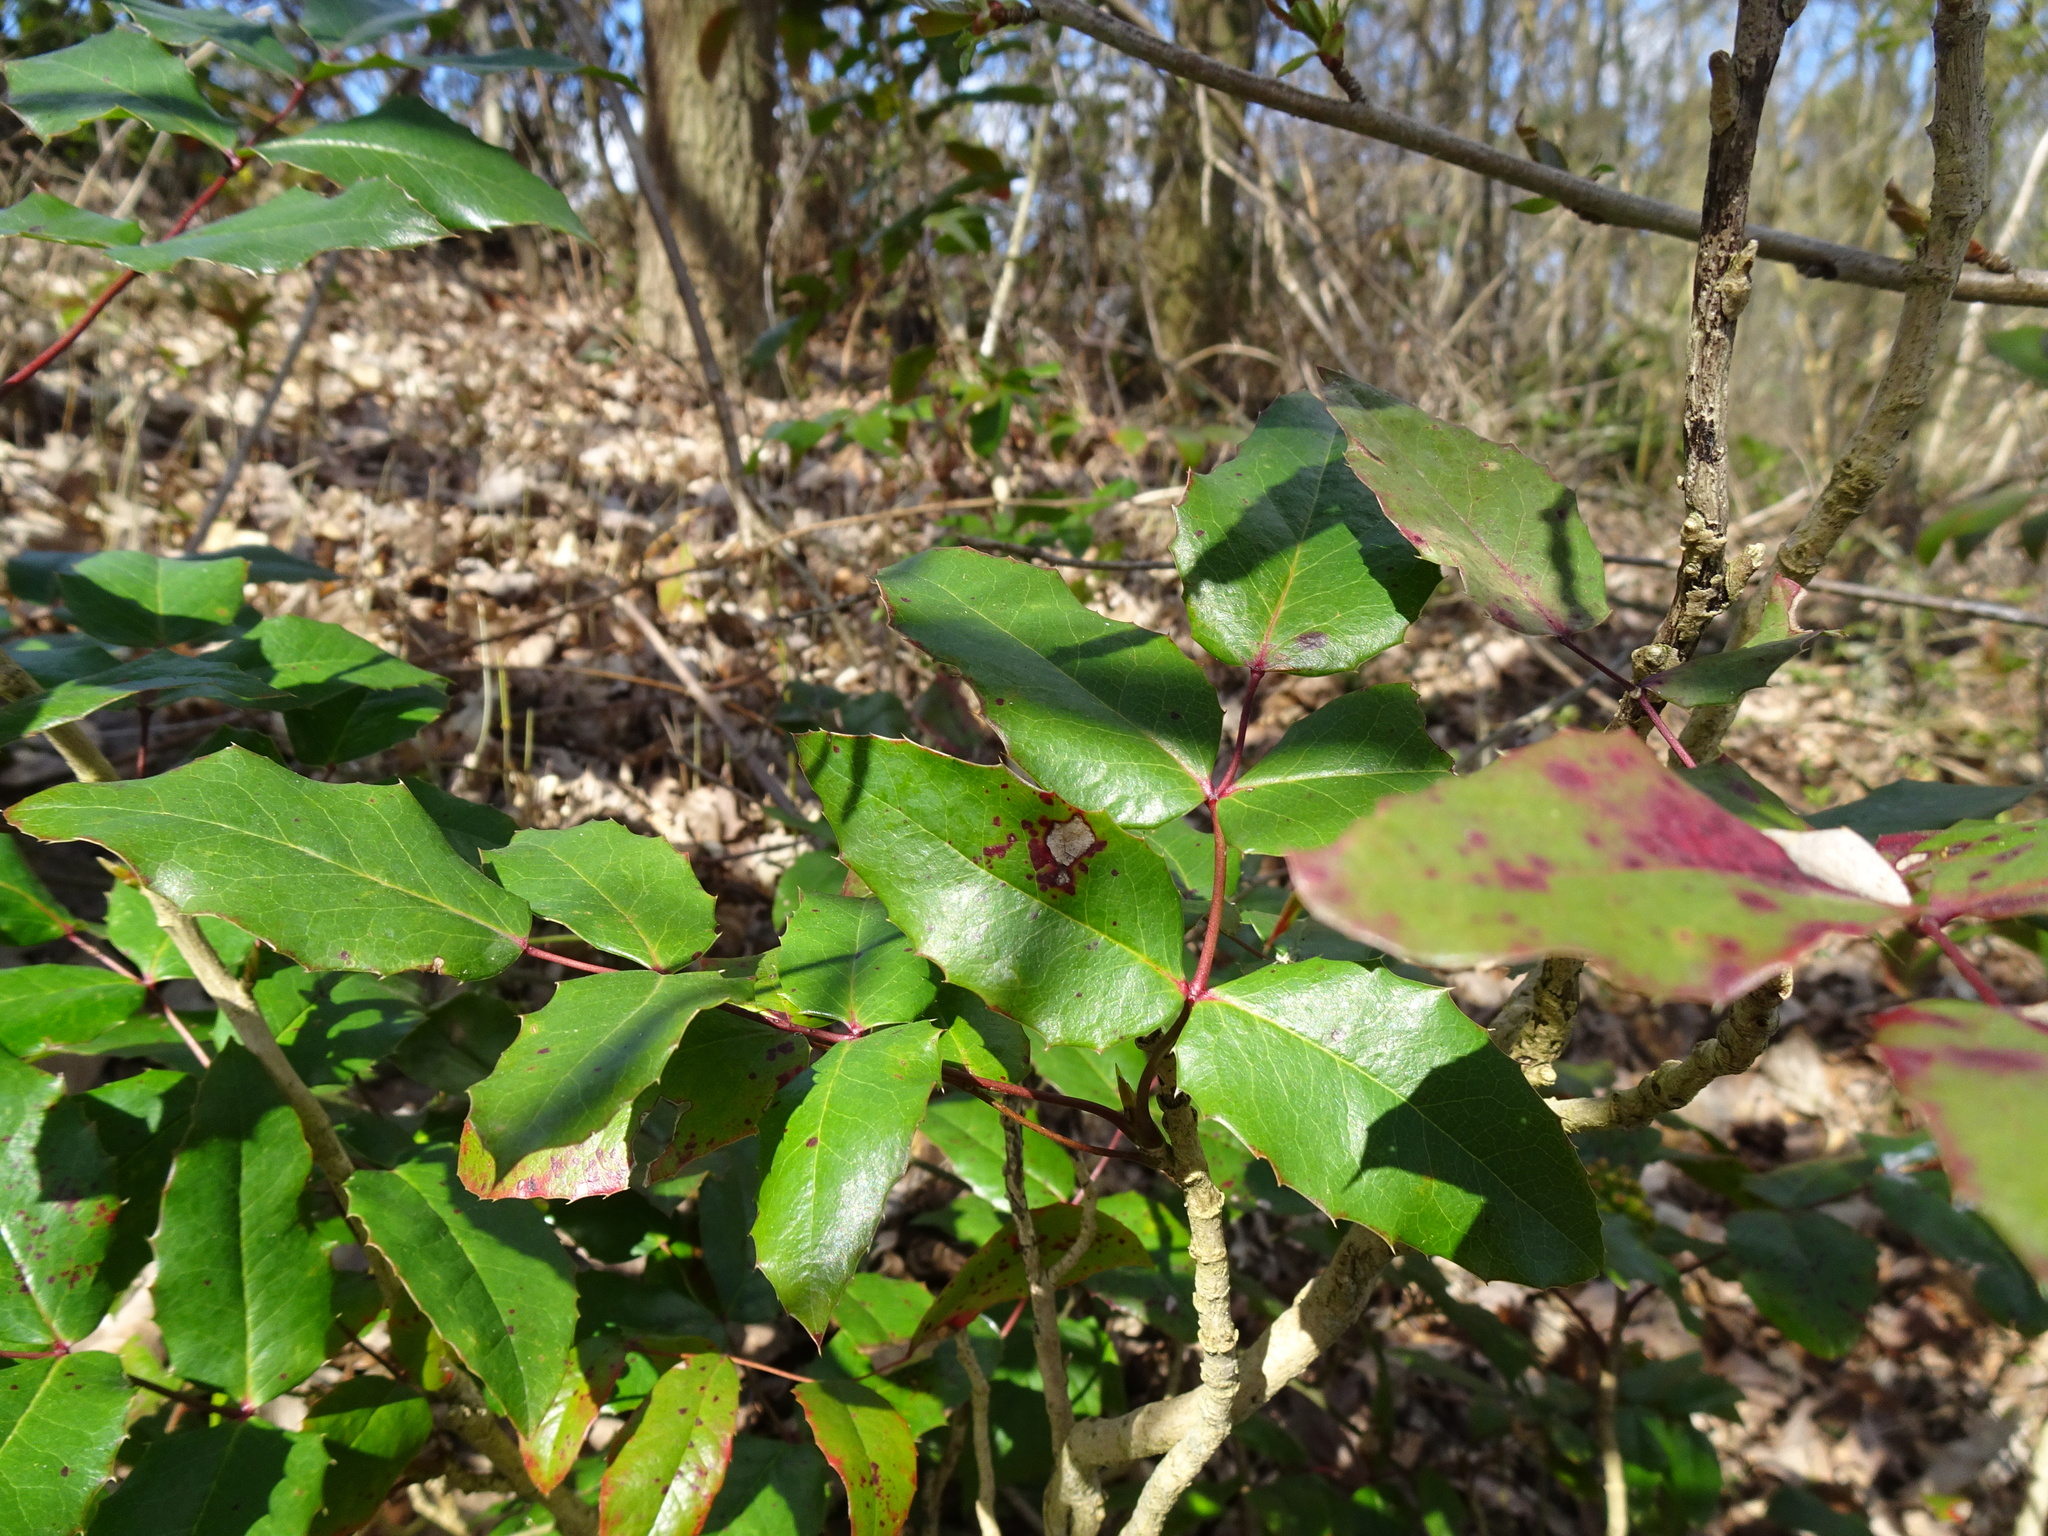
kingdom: Plantae
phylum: Tracheophyta
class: Magnoliopsida
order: Ranunculales
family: Berberidaceae
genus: Mahonia
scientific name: Mahonia aquifolium
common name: Oregon-grape
